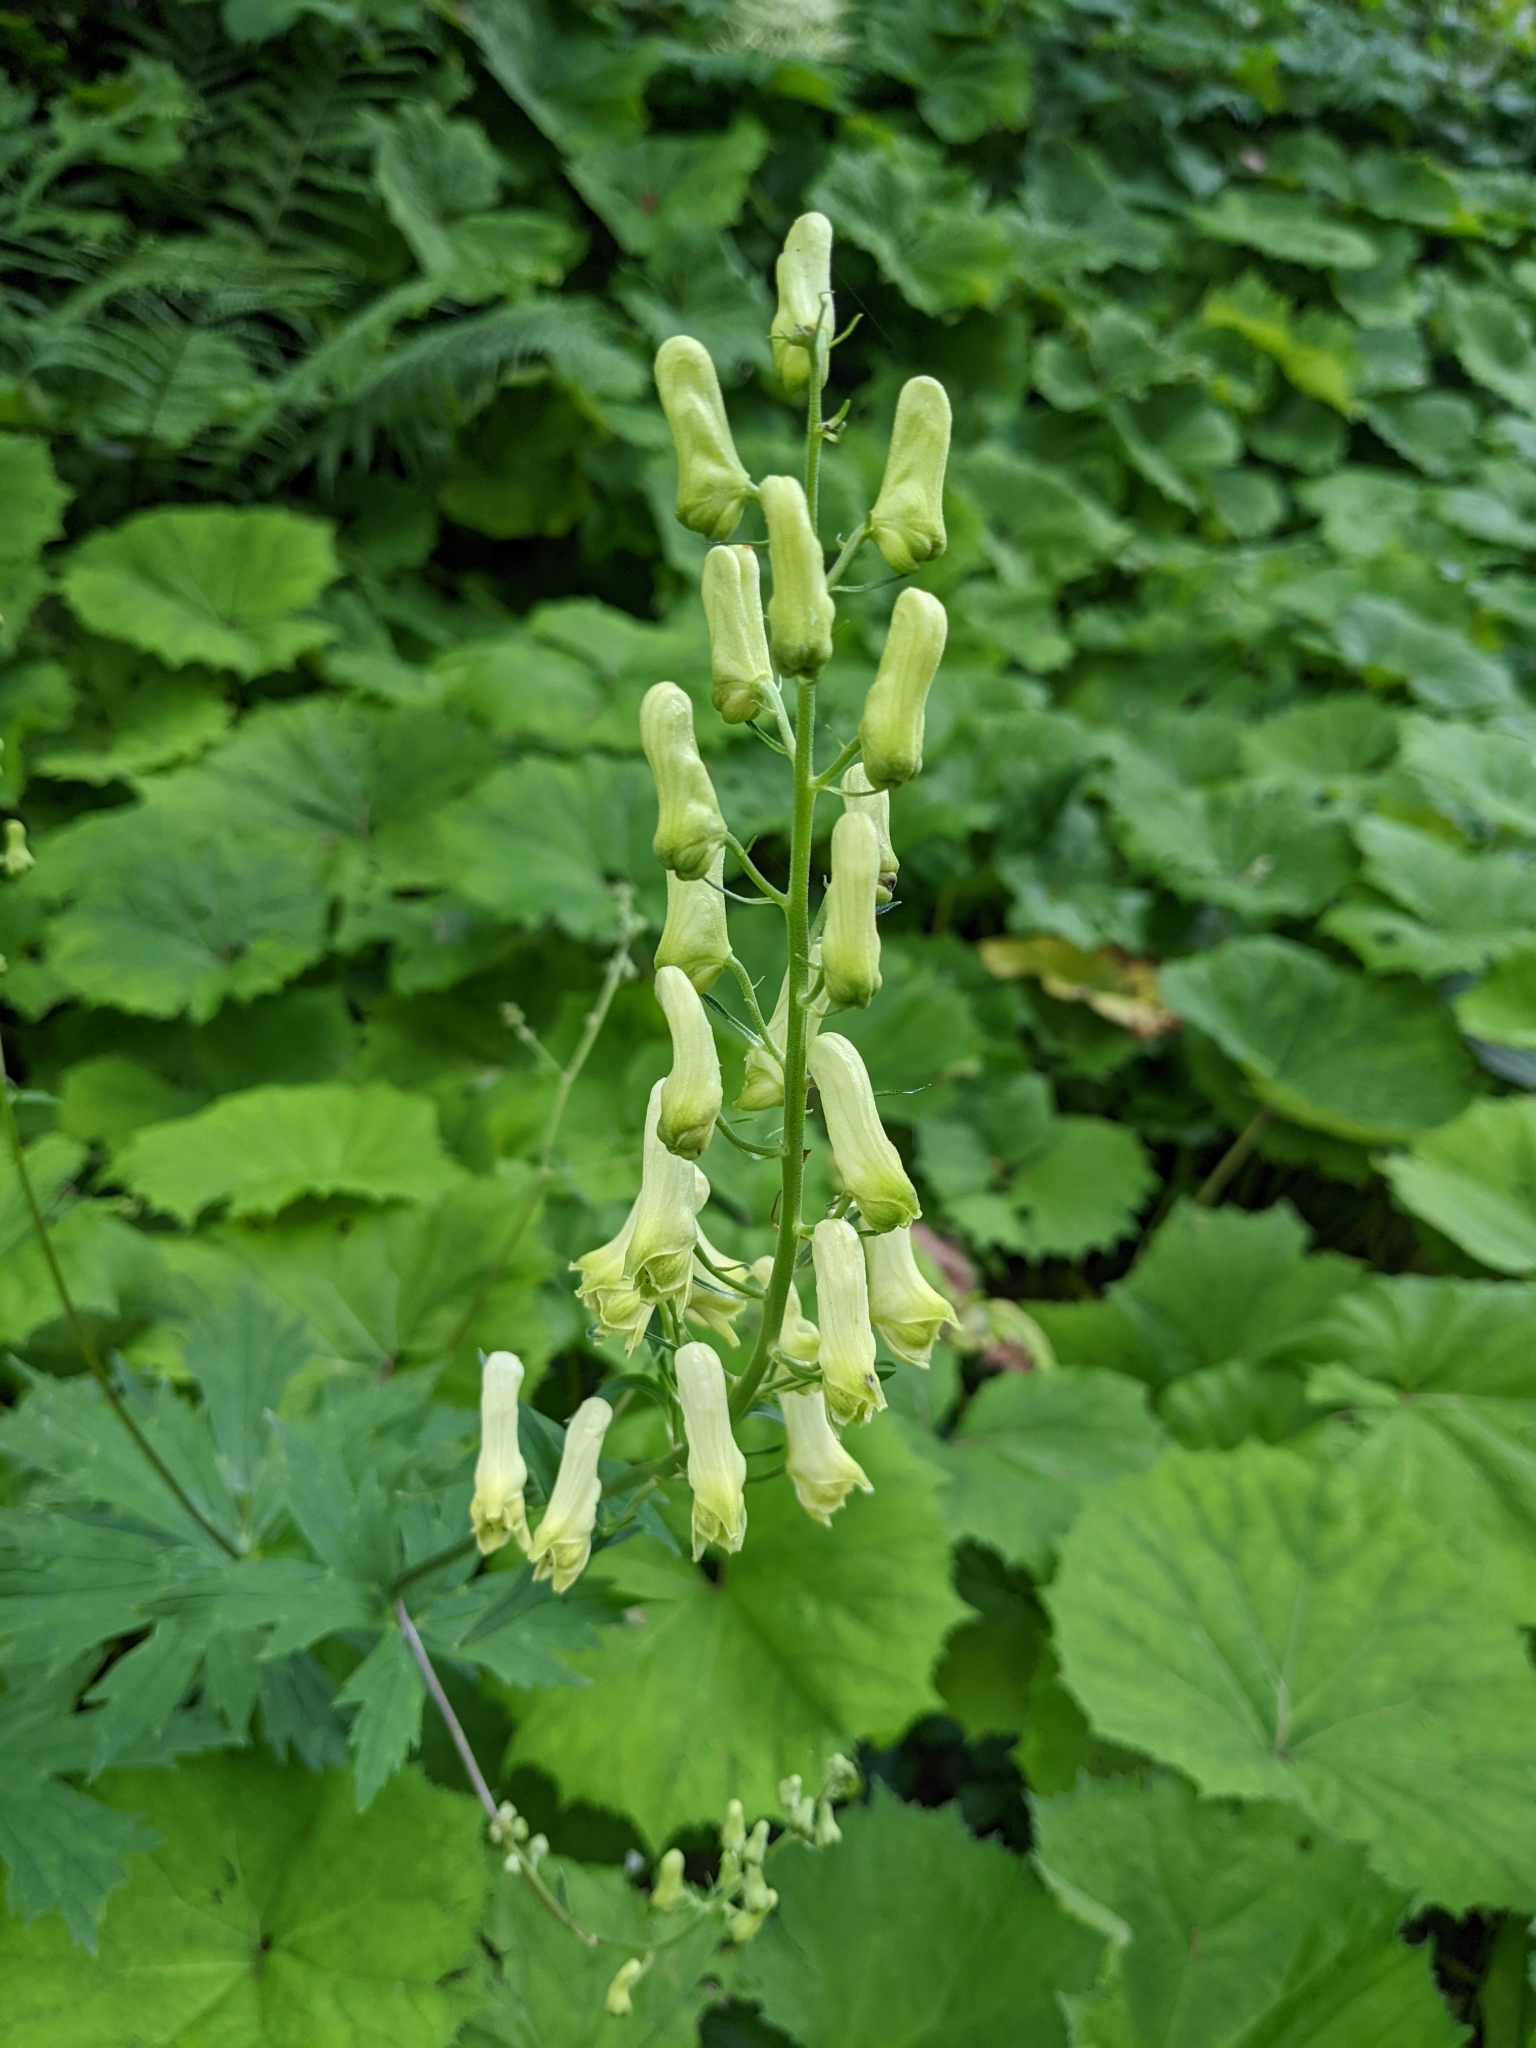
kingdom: Plantae
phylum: Tracheophyta
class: Magnoliopsida
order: Ranunculales
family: Ranunculaceae
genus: Aconitum
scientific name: Aconitum lycoctonum
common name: Wolf's-bane
